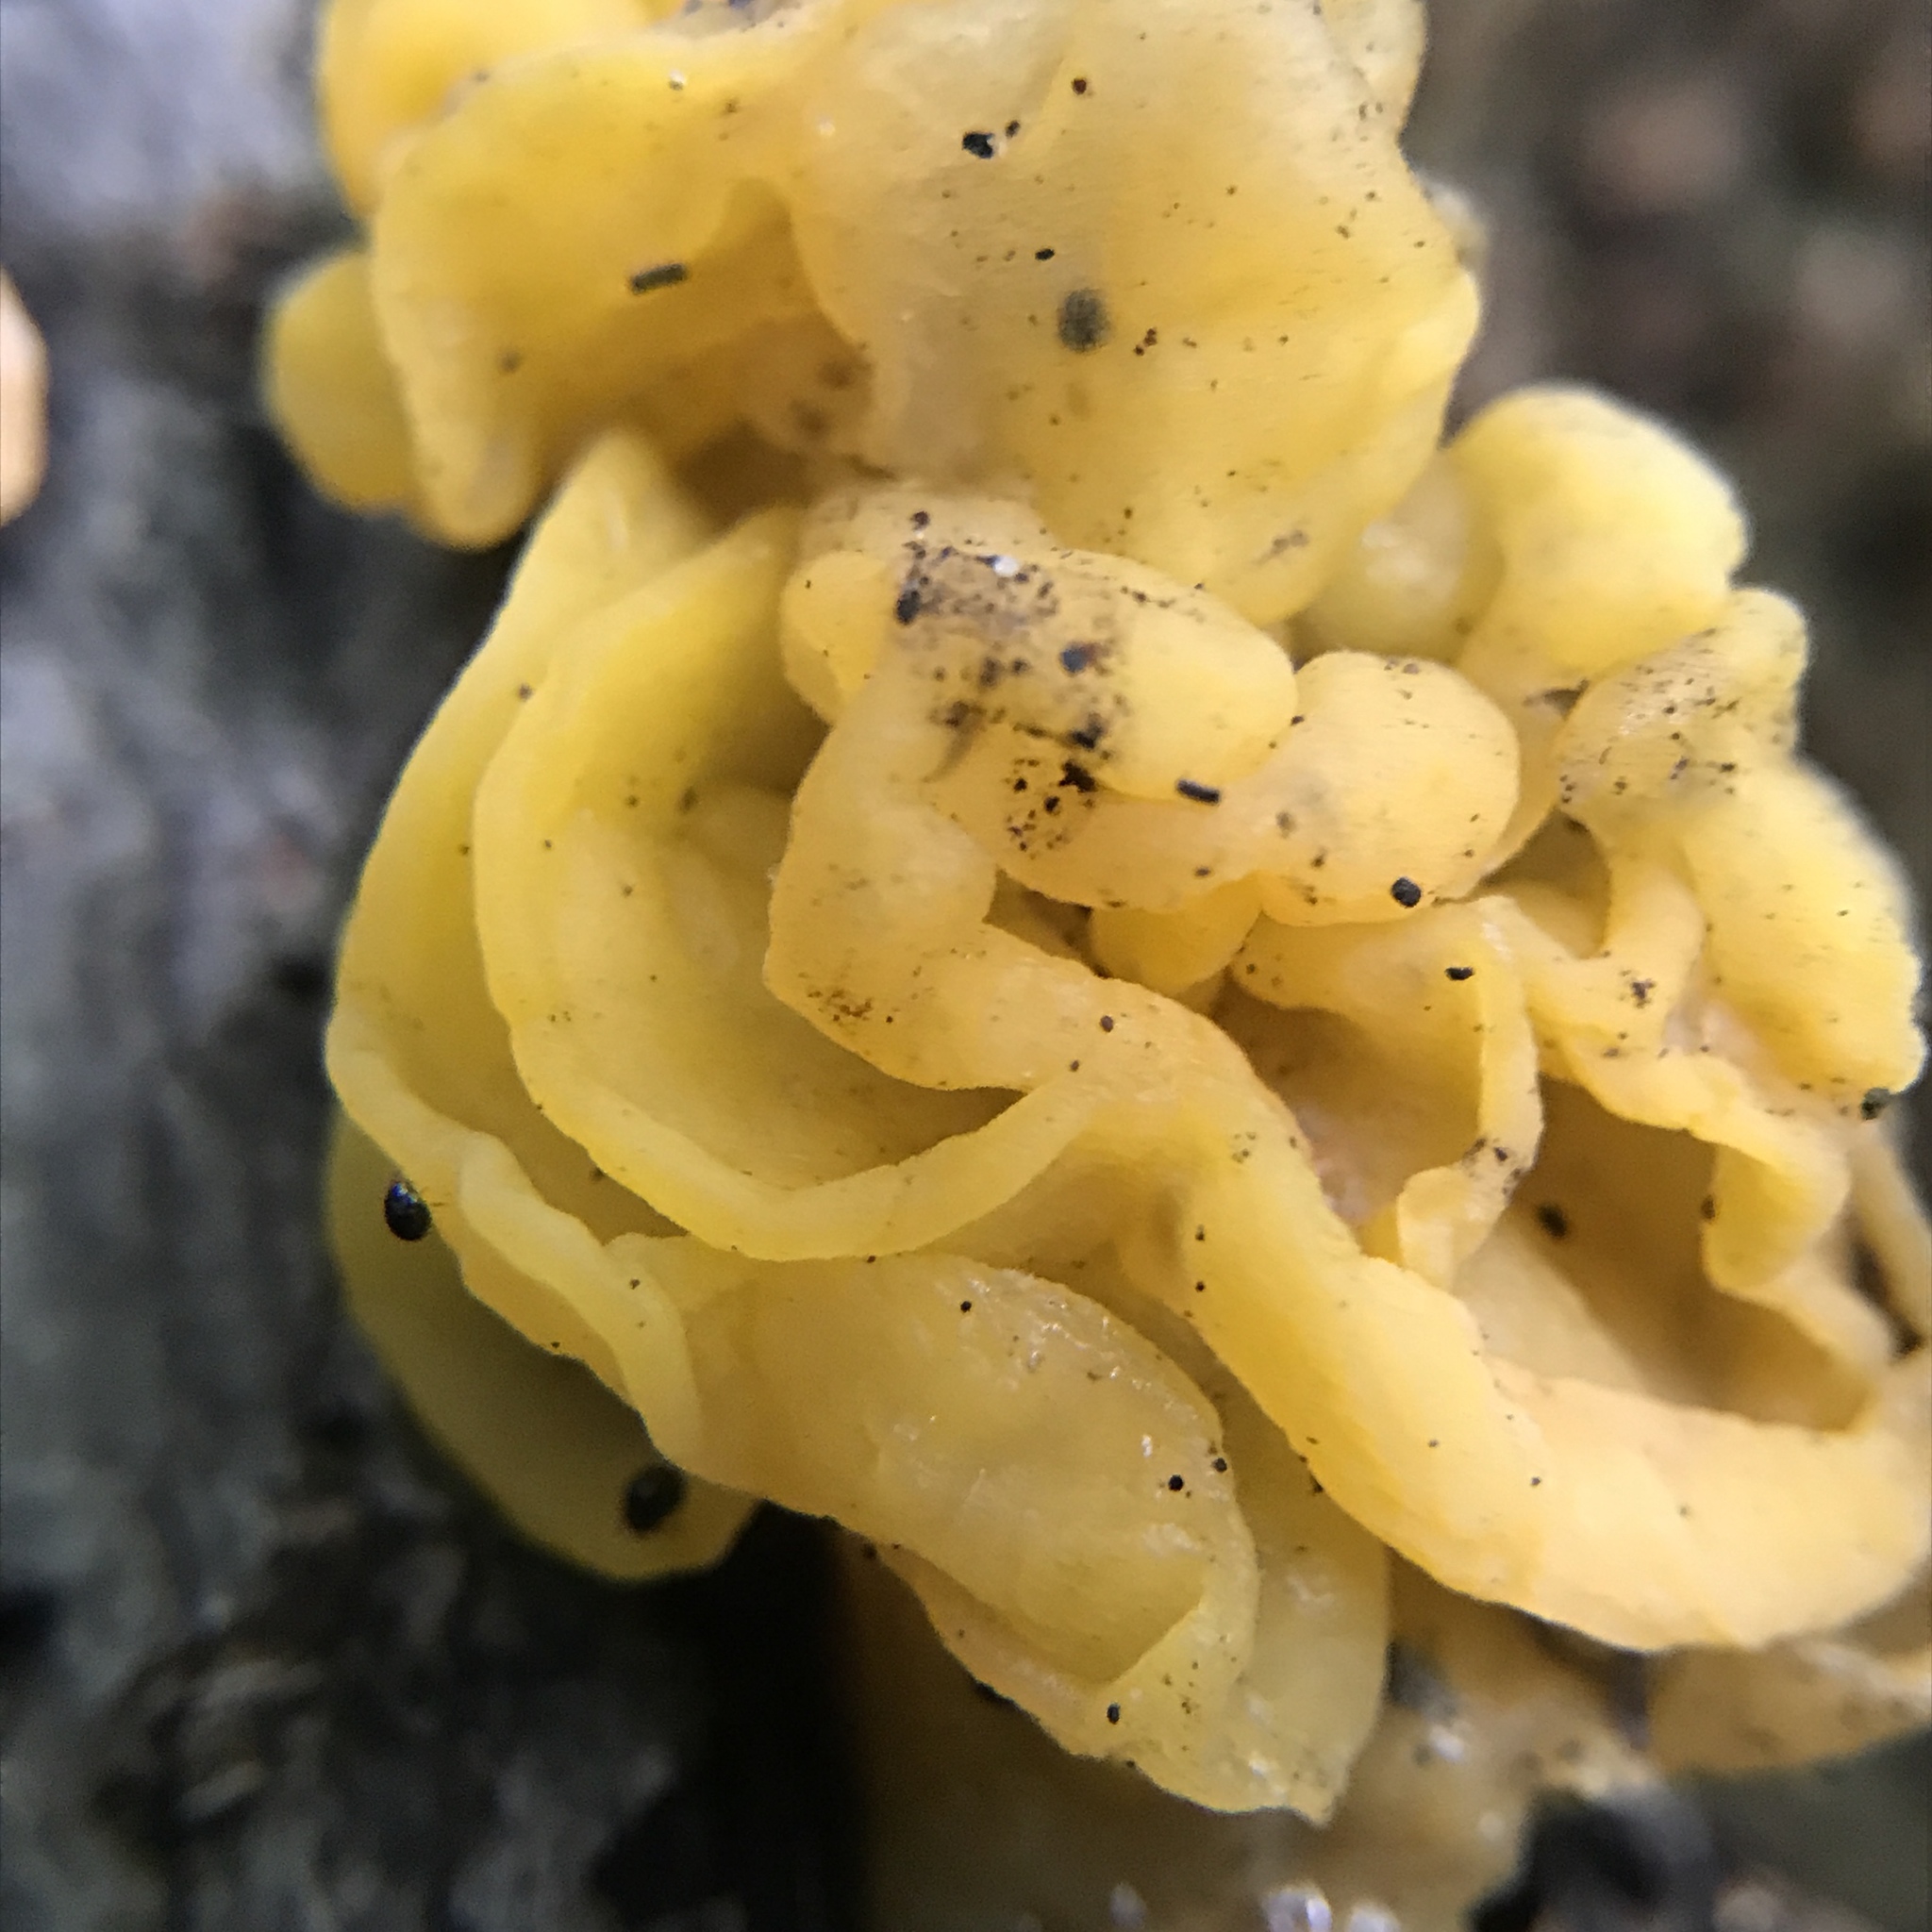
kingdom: Fungi
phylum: Basidiomycota
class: Tremellomycetes
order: Tremellales
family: Naemateliaceae
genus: Naematelia
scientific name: Naematelia aurantia
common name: Golden ear
